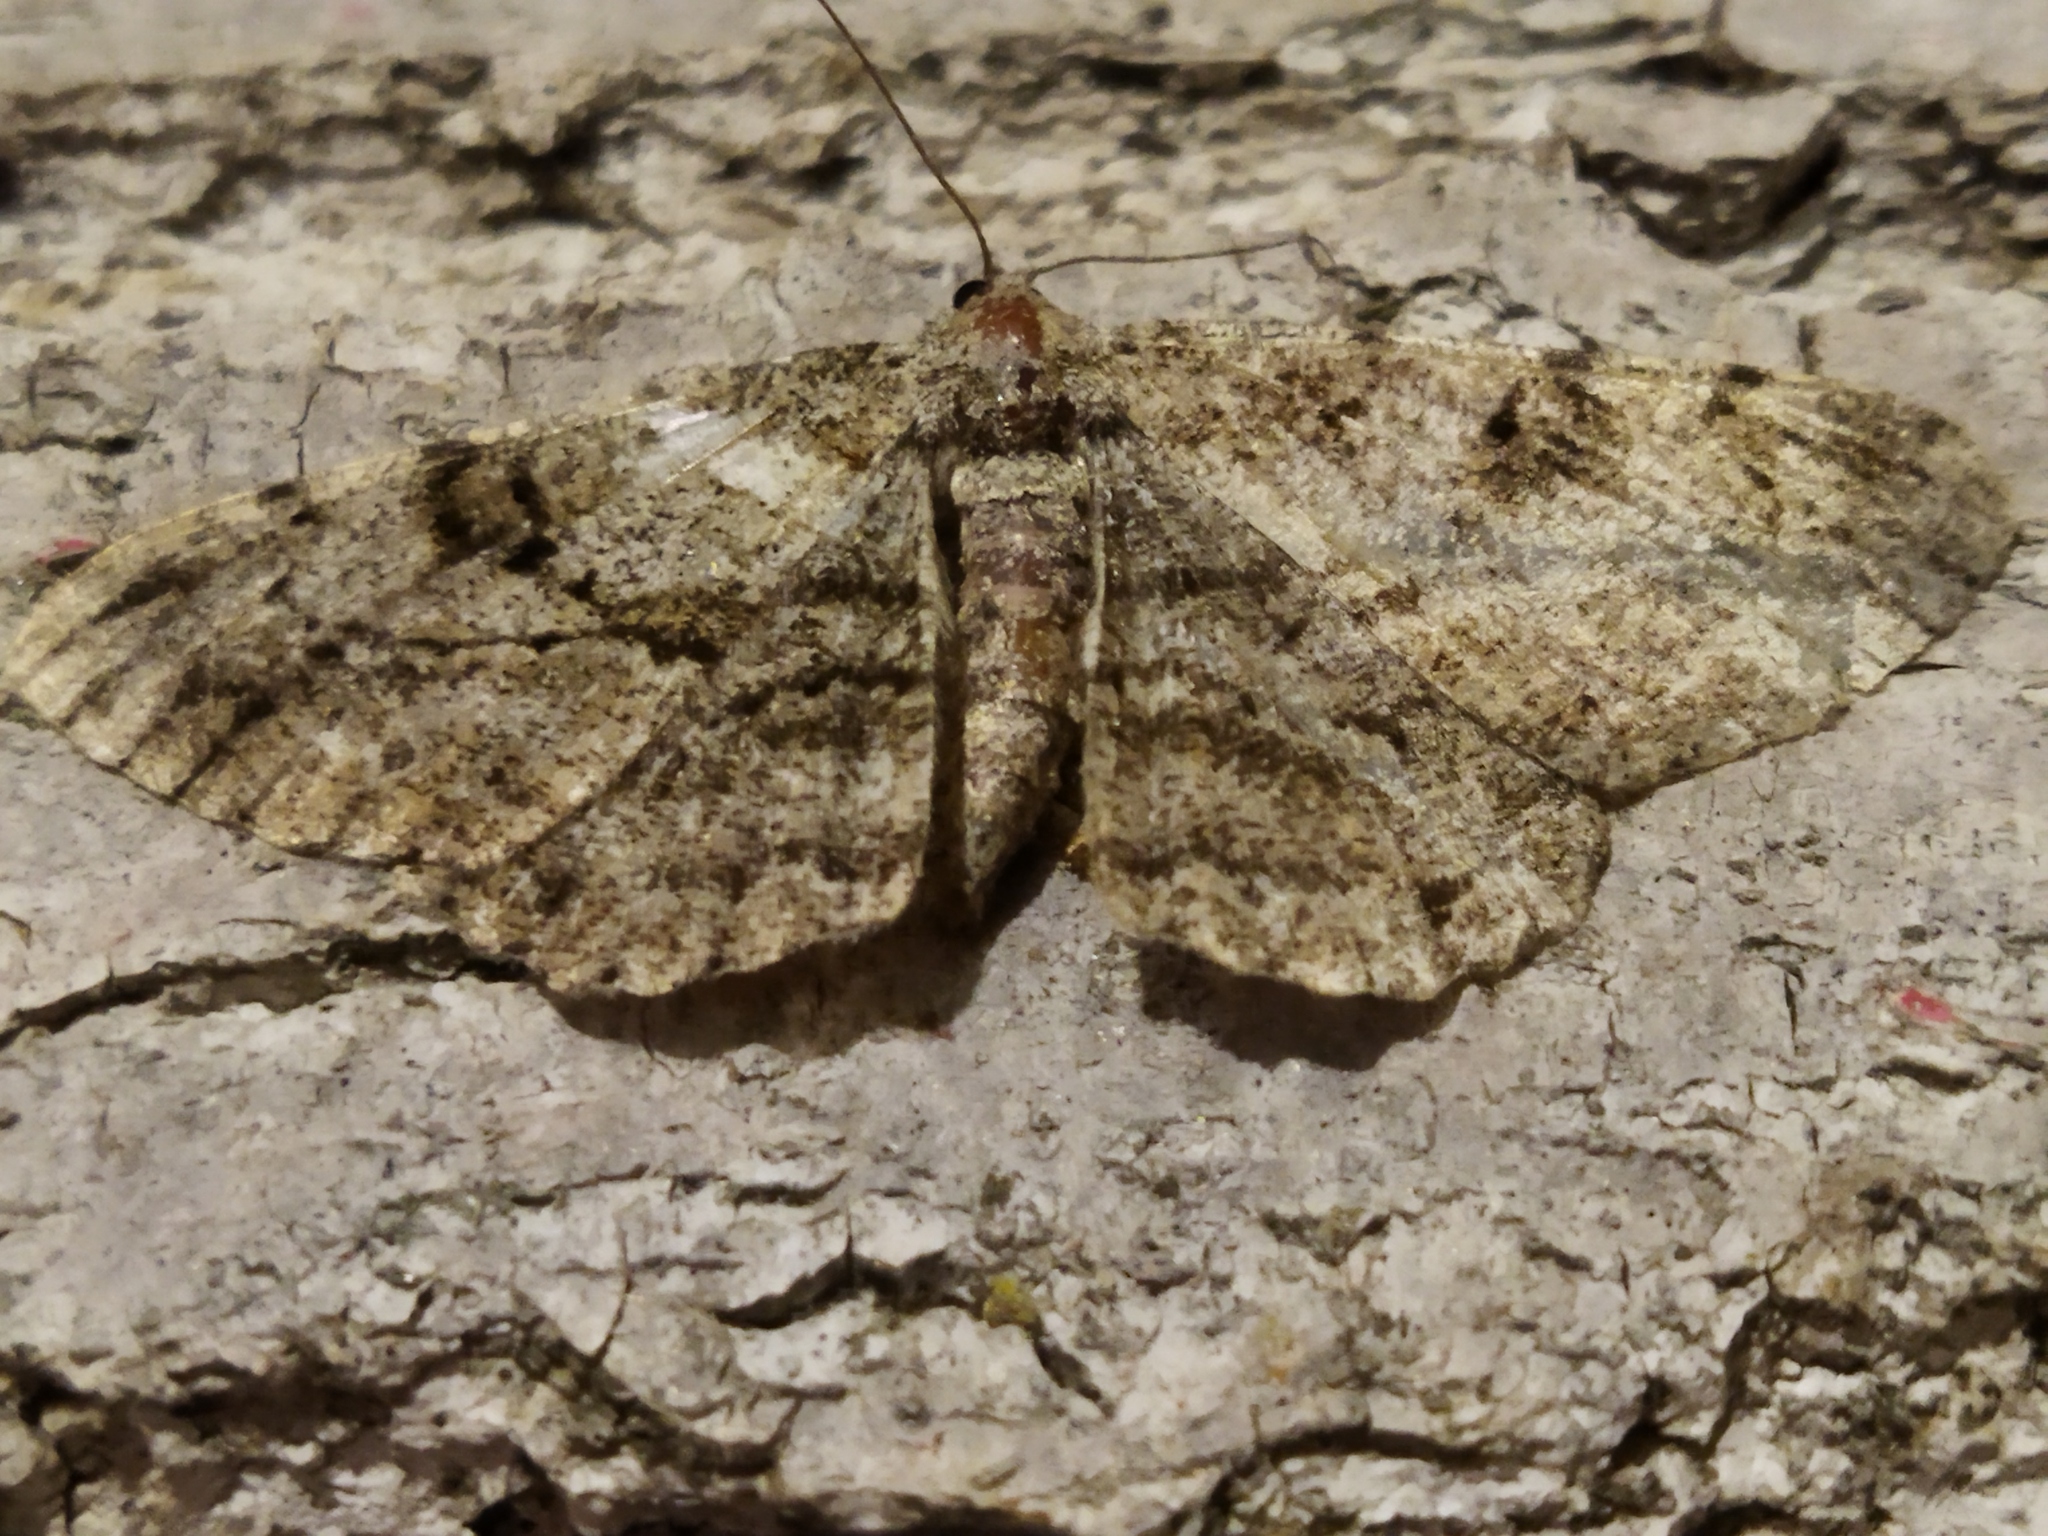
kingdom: Animalia
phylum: Arthropoda
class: Insecta
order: Lepidoptera
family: Geometridae
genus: Peribatodes
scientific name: Peribatodes rhomboidaria
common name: Willow beauty
